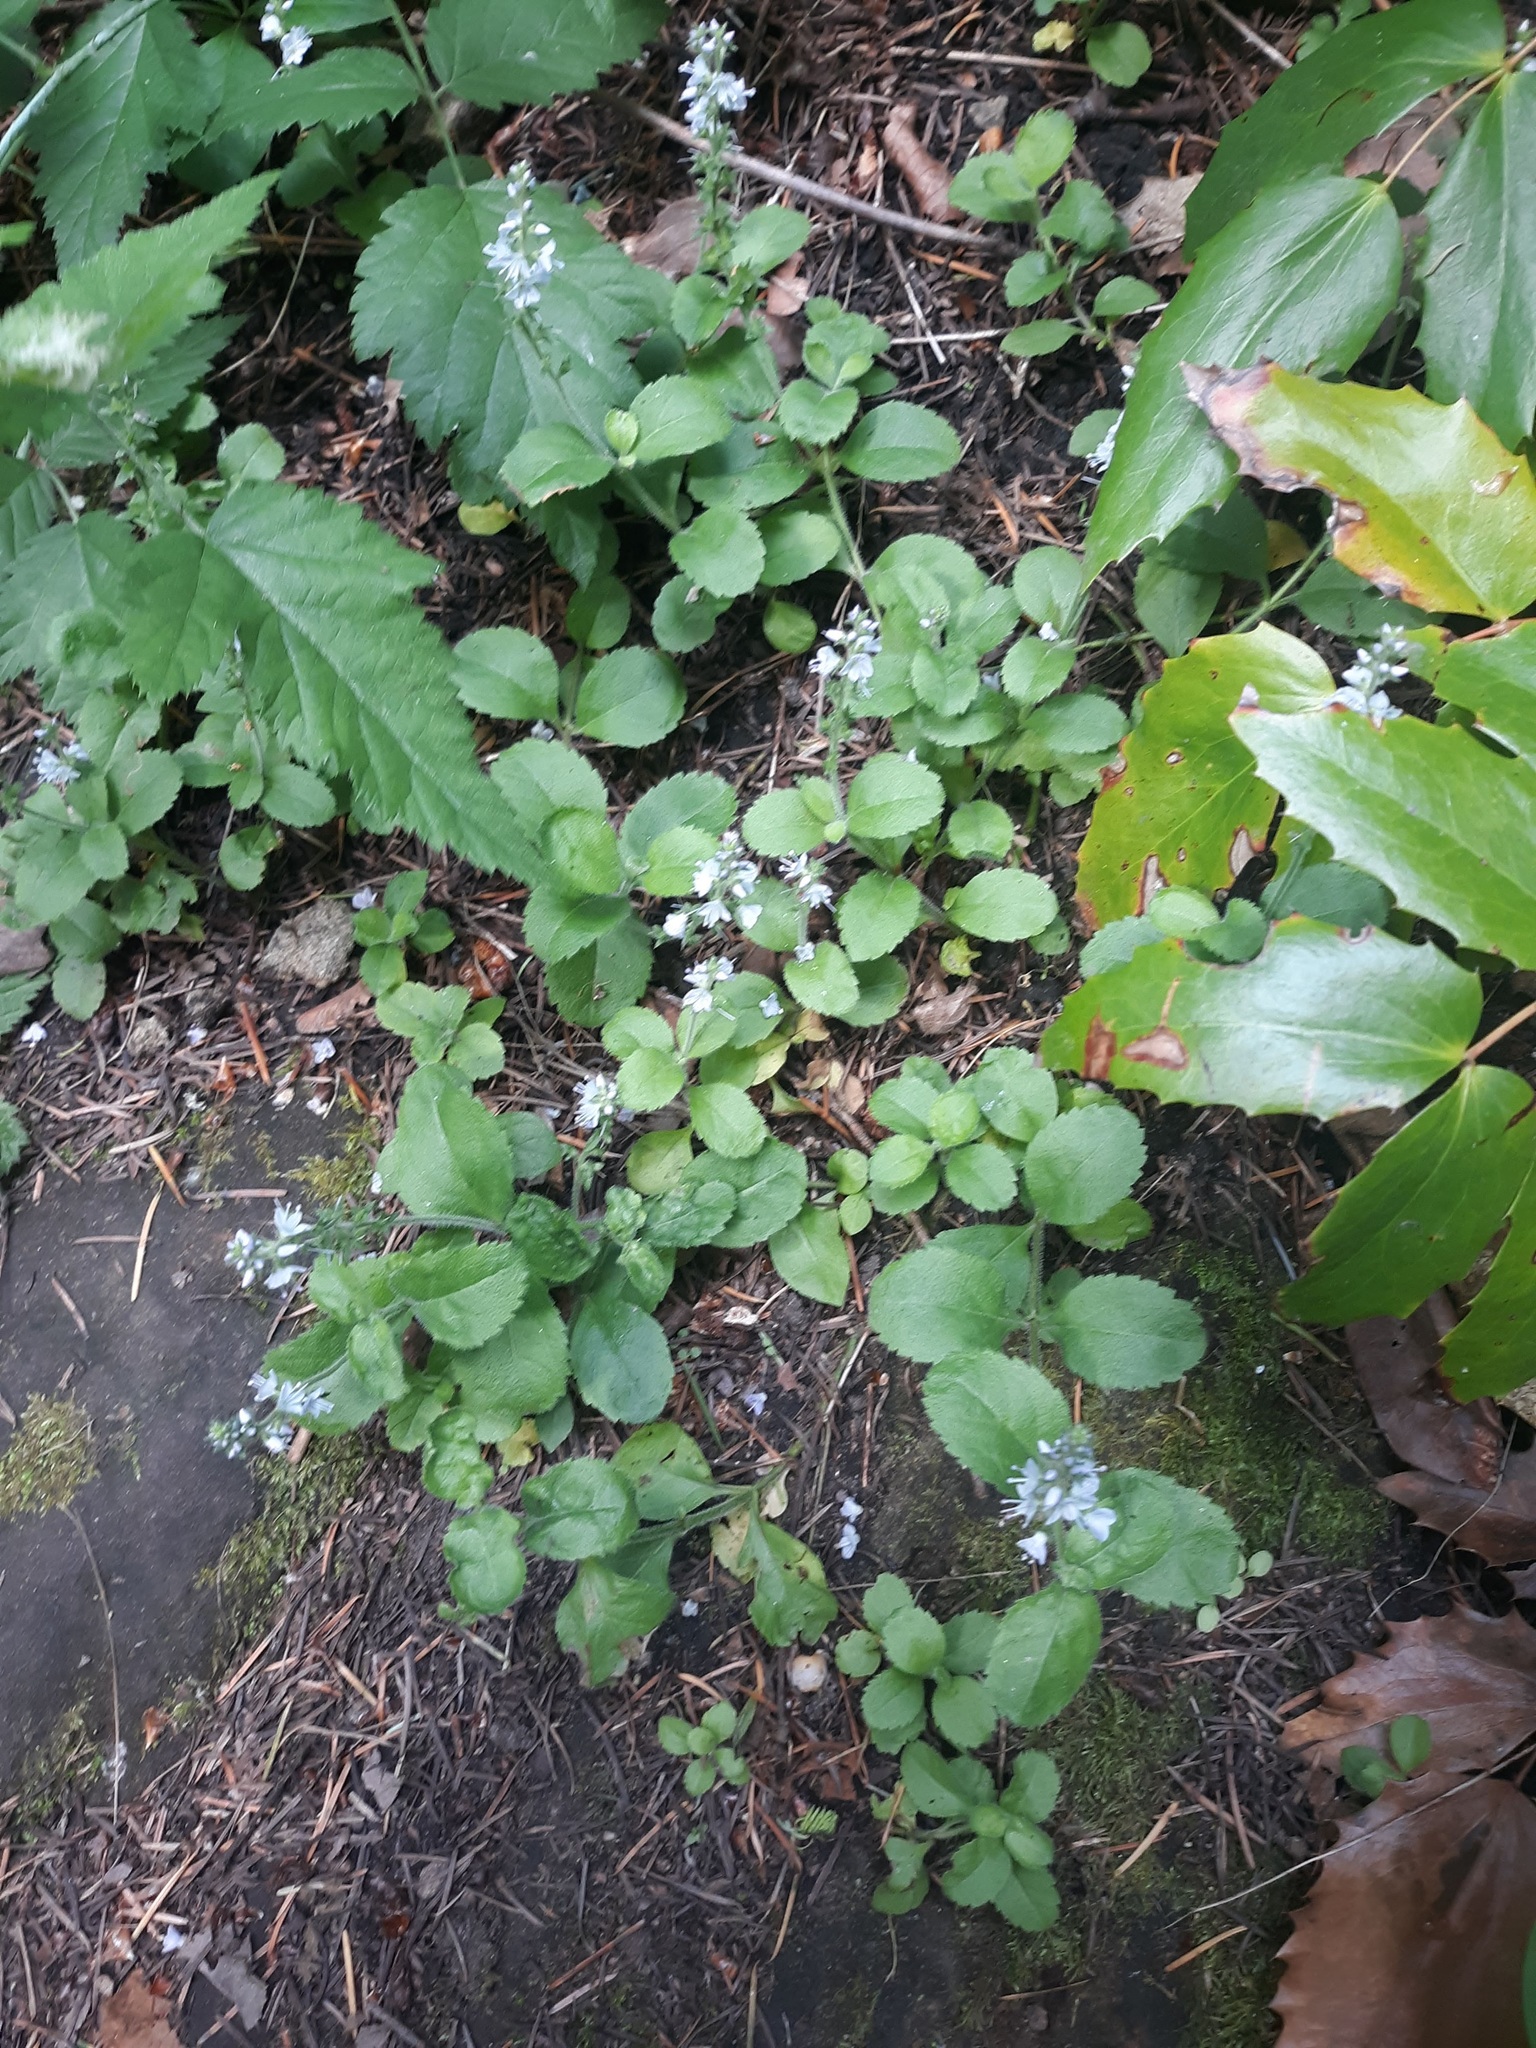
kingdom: Plantae
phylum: Tracheophyta
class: Magnoliopsida
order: Lamiales
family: Plantaginaceae
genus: Veronica
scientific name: Veronica officinalis
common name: Common speedwell
